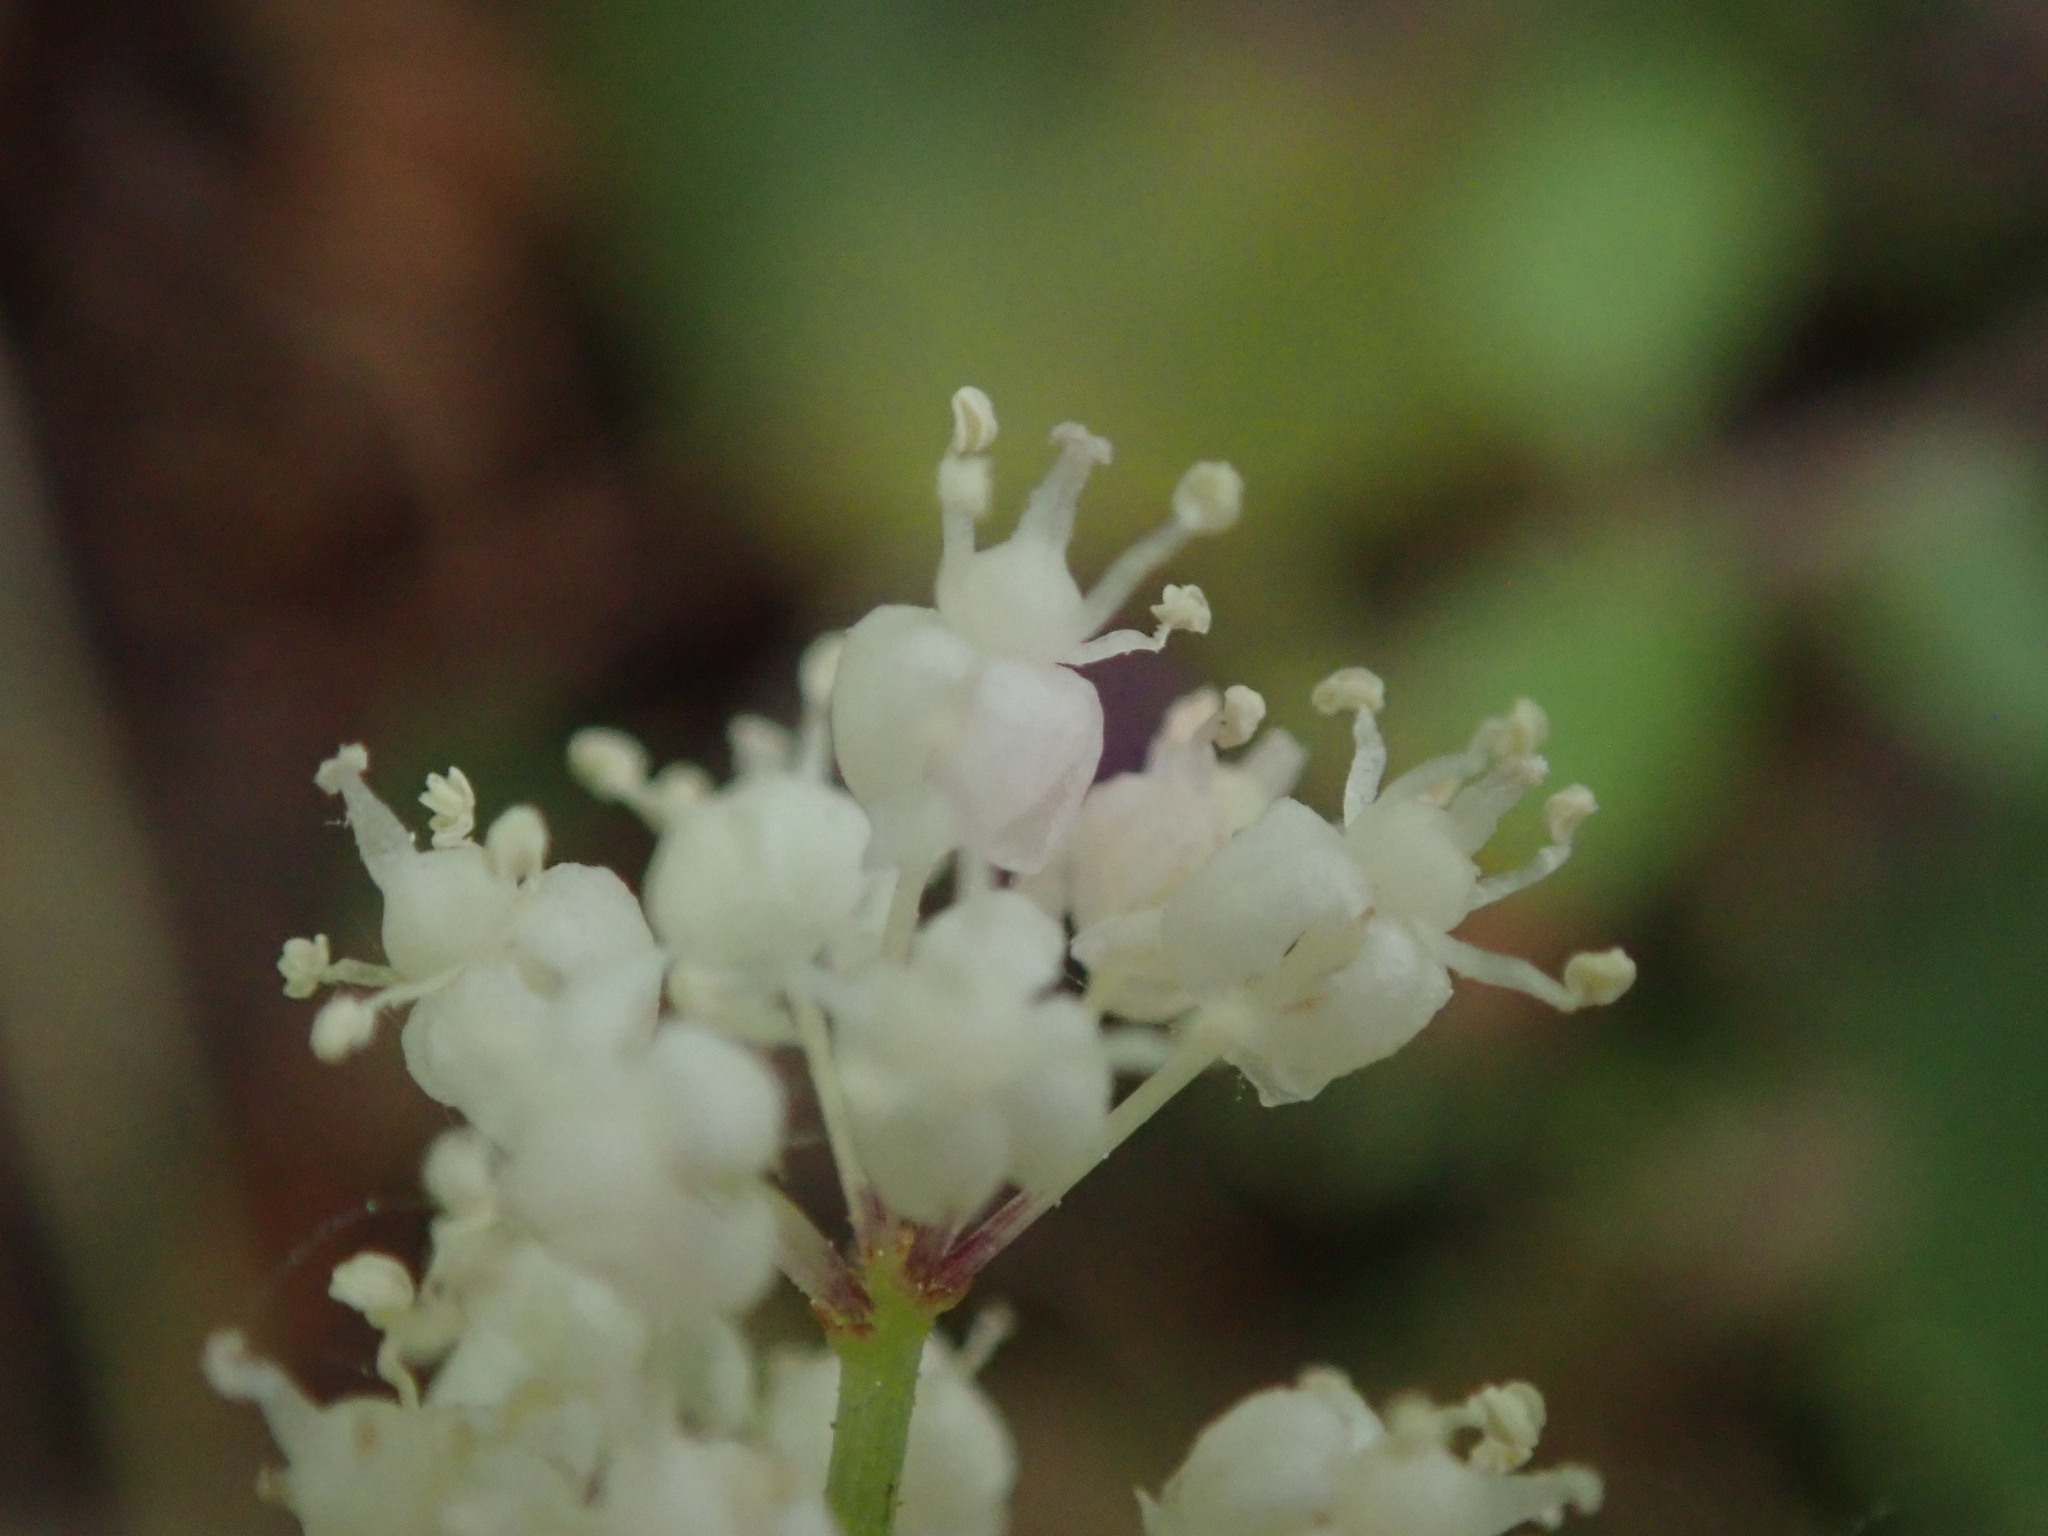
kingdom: Plantae
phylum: Tracheophyta
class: Liliopsida
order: Asparagales
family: Asparagaceae
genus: Maianthemum
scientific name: Maianthemum bifolium
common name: May lily
